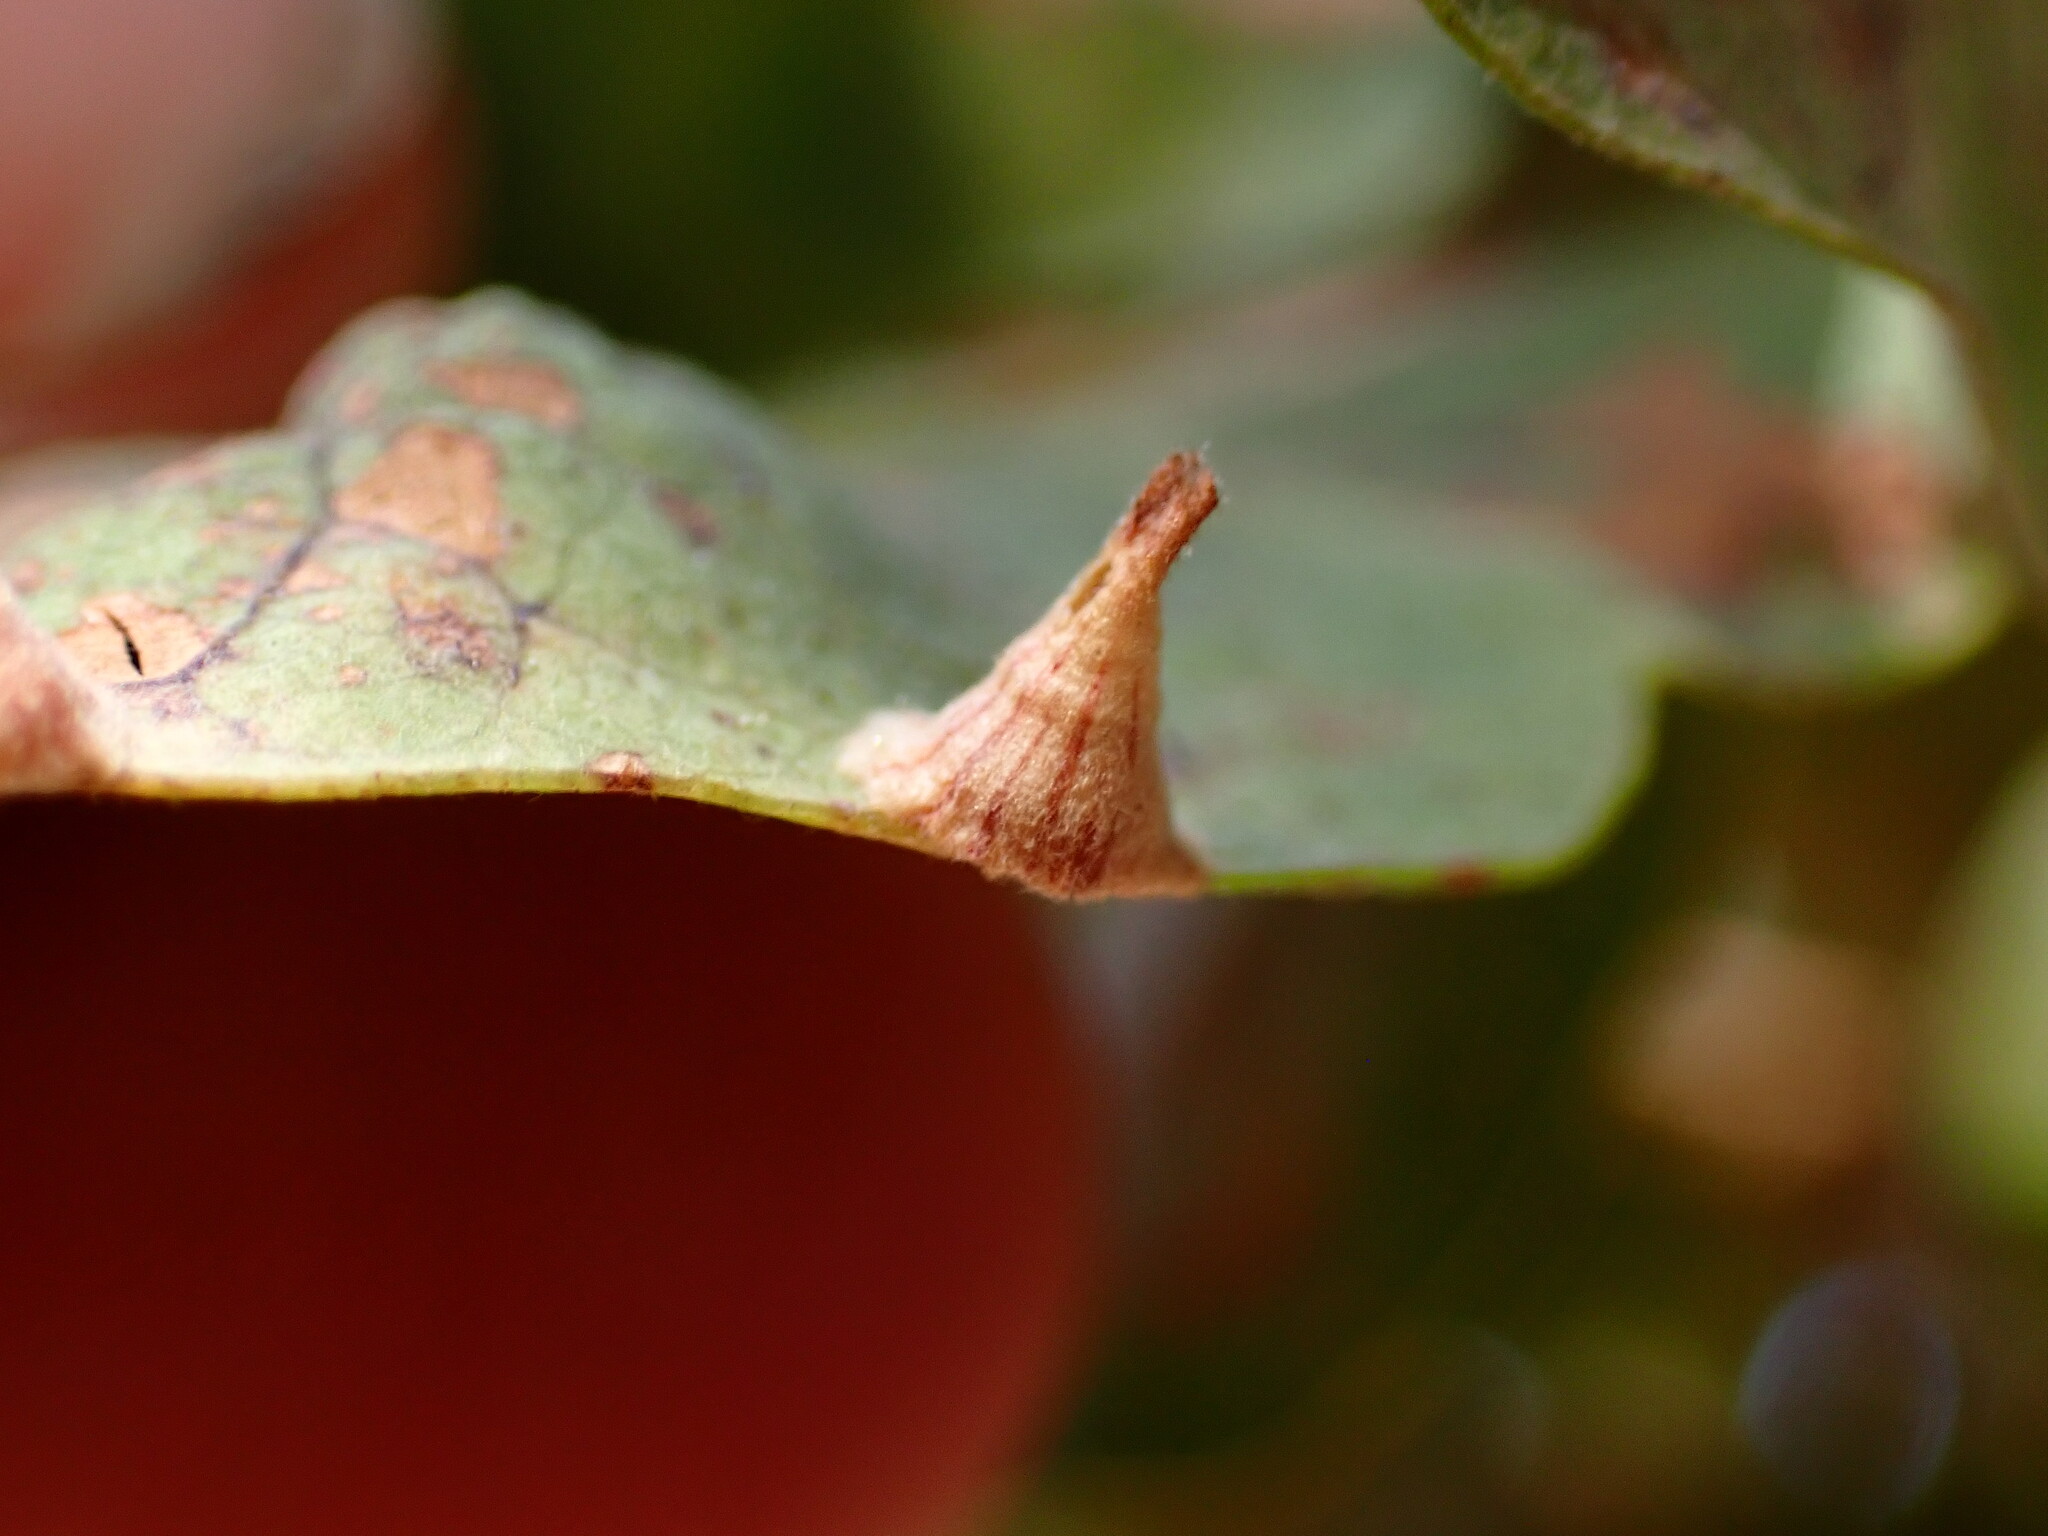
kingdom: Animalia
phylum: Arthropoda
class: Insecta
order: Hymenoptera
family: Cynipidae
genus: Andricus
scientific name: Andricus
